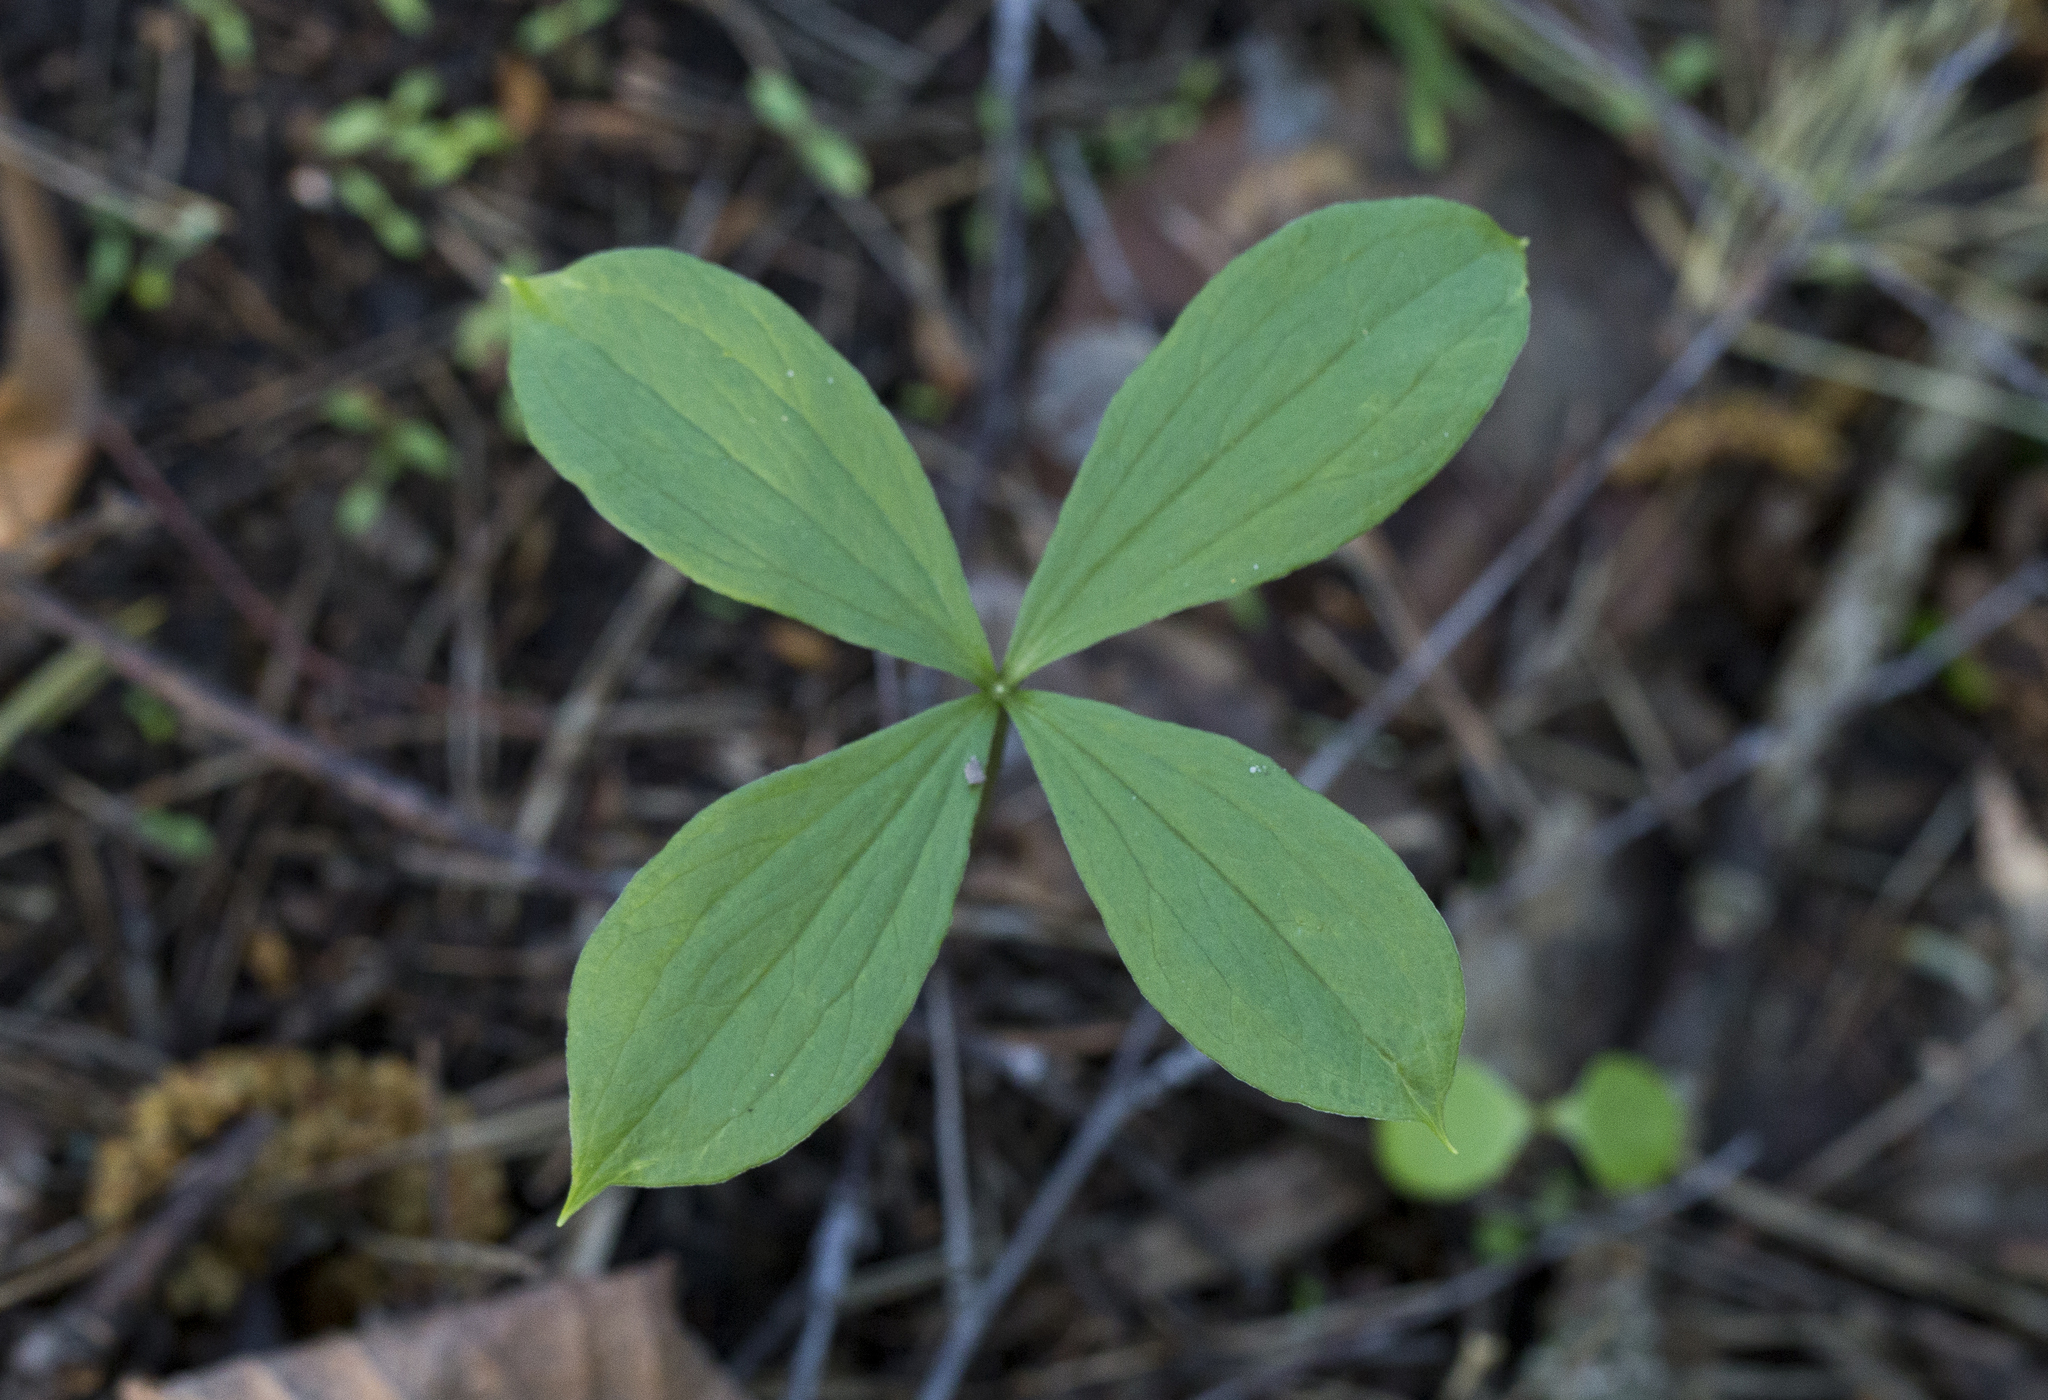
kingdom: Plantae
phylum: Tracheophyta
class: Liliopsida
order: Liliales
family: Melanthiaceae
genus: Paris
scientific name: Paris quadrifolia
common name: Herb-paris
